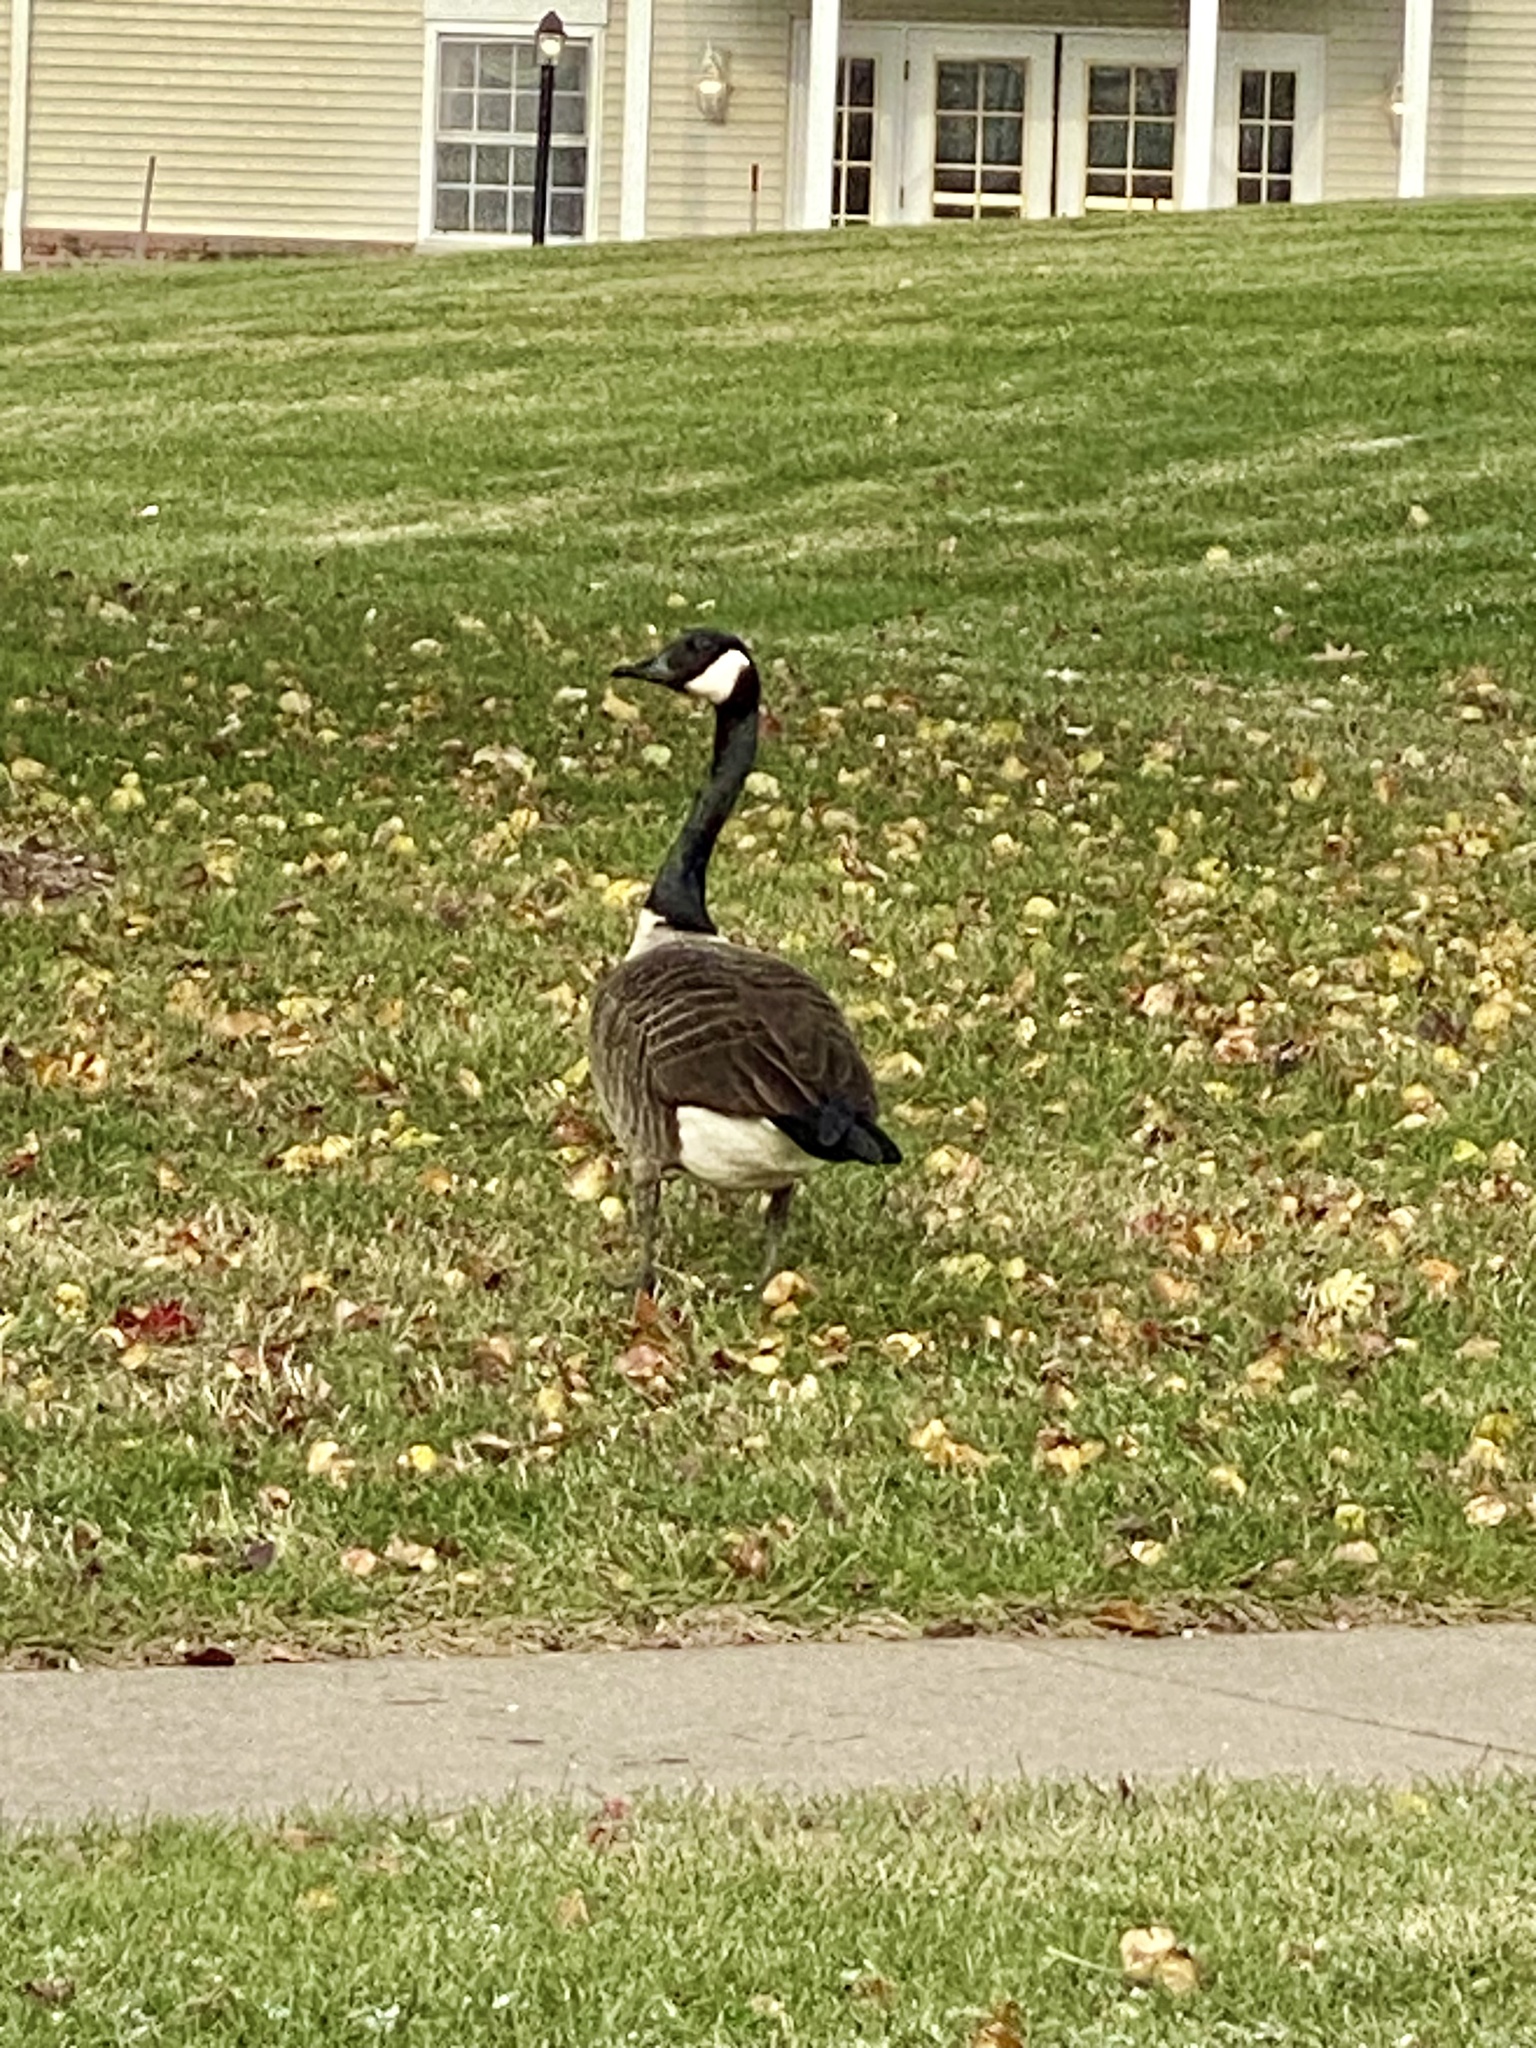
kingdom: Animalia
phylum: Chordata
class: Aves
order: Anseriformes
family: Anatidae
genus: Branta
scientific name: Branta canadensis
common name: Canada goose
